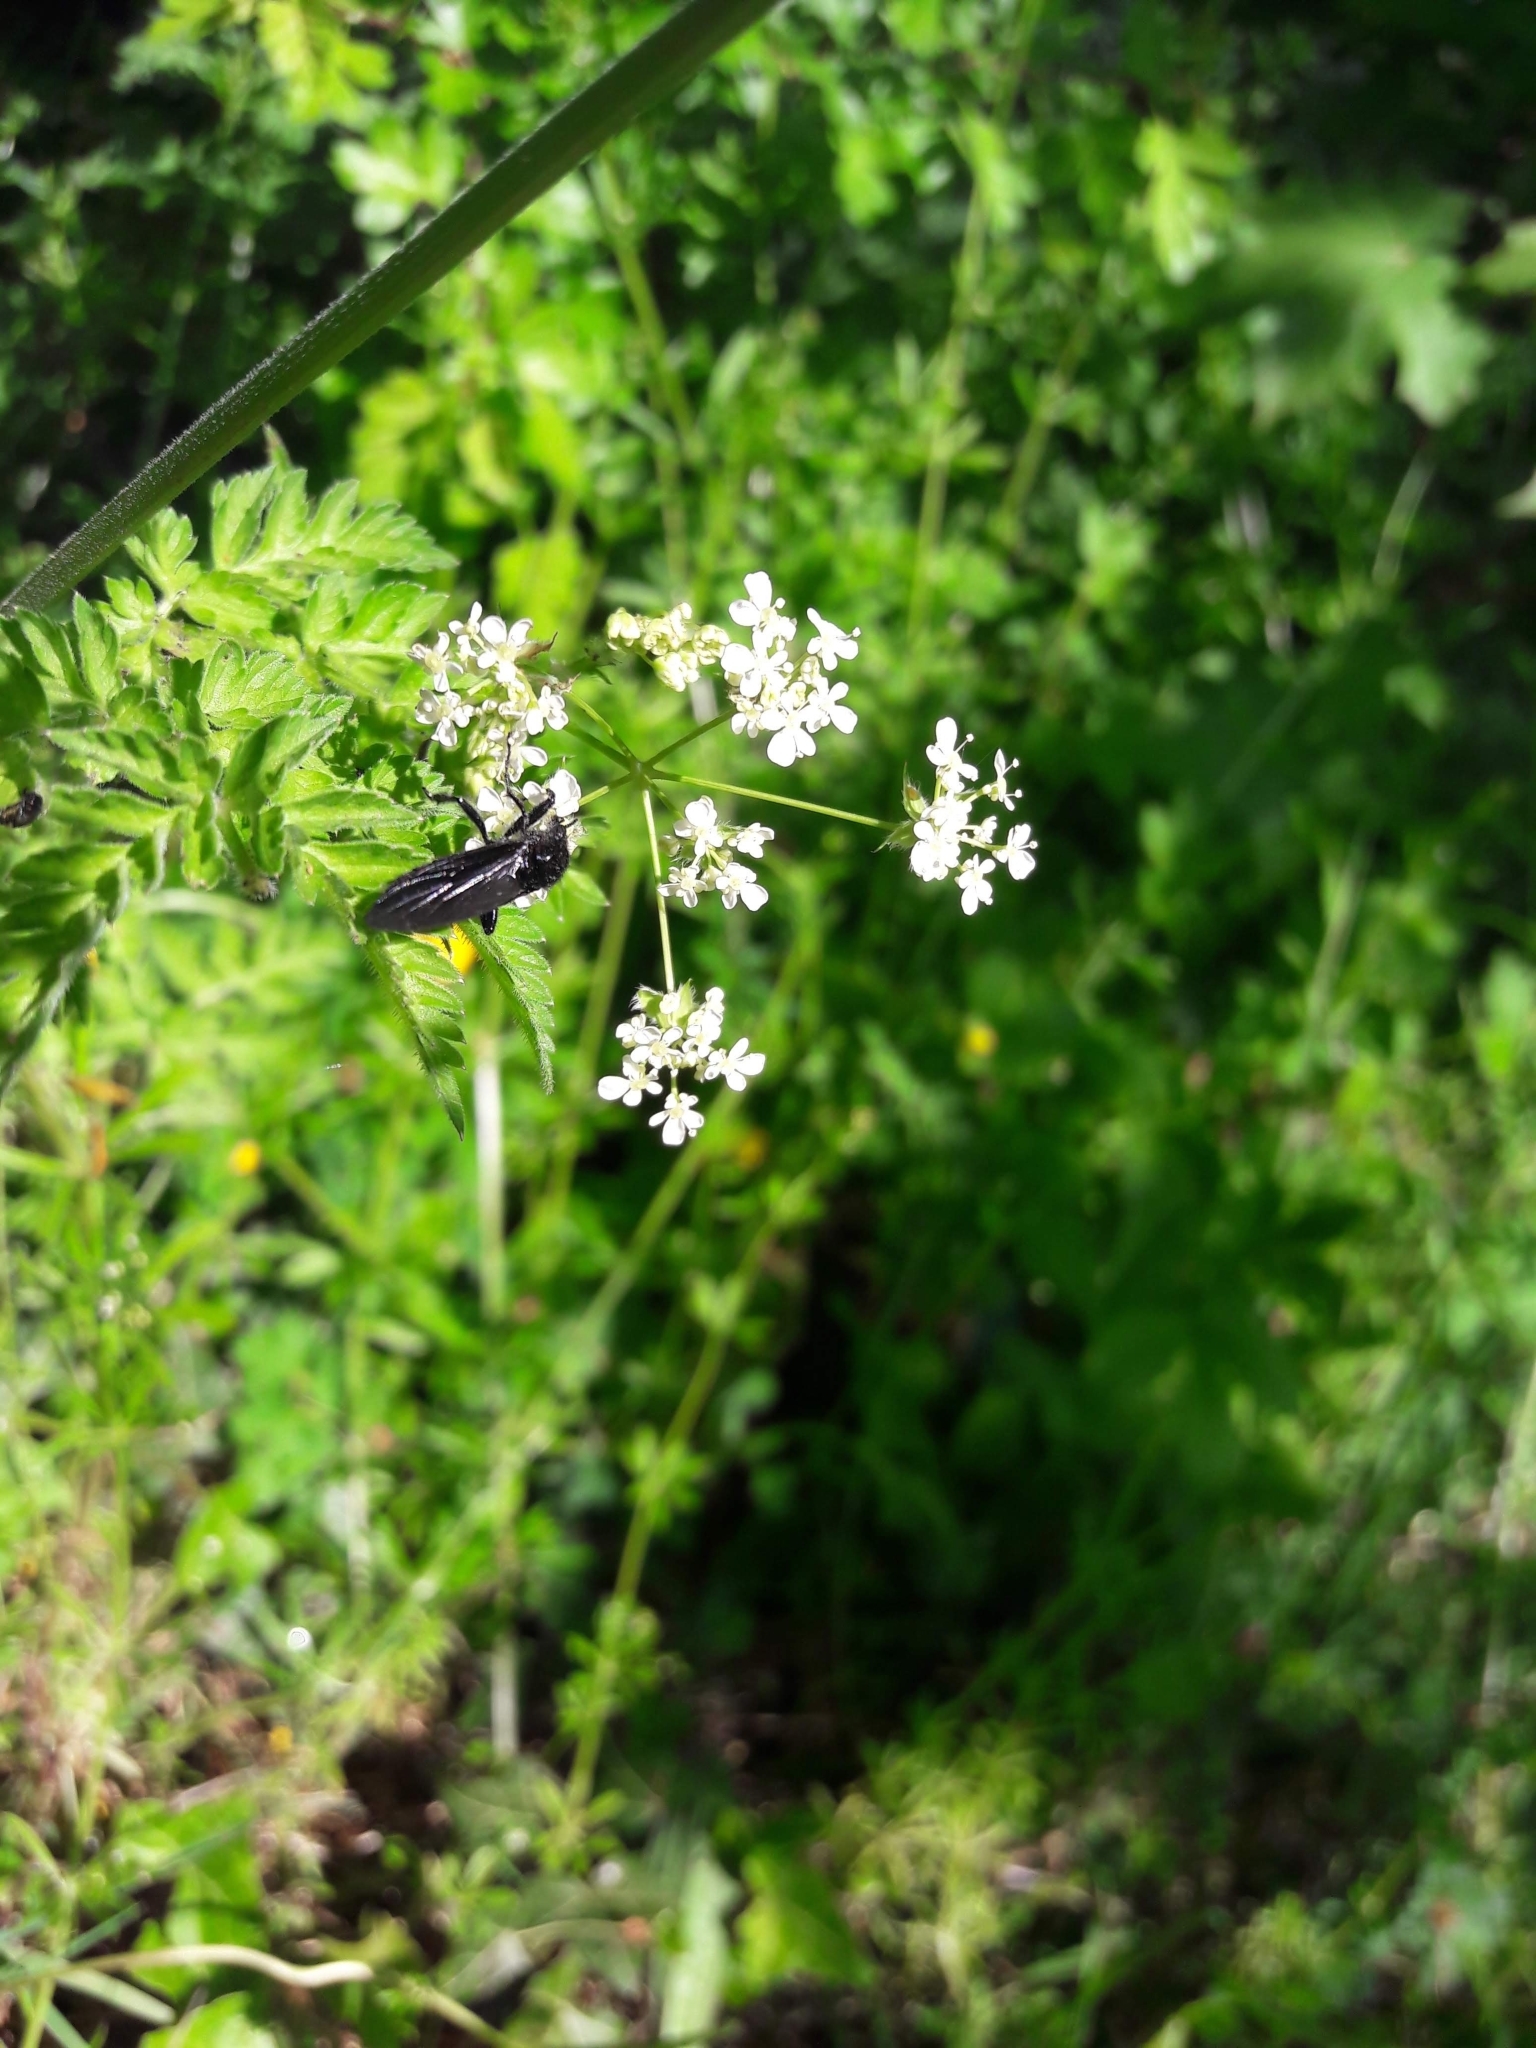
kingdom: Animalia
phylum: Arthropoda
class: Insecta
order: Diptera
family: Bibionidae
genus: Bibio
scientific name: Bibio marci
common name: St marks fly
